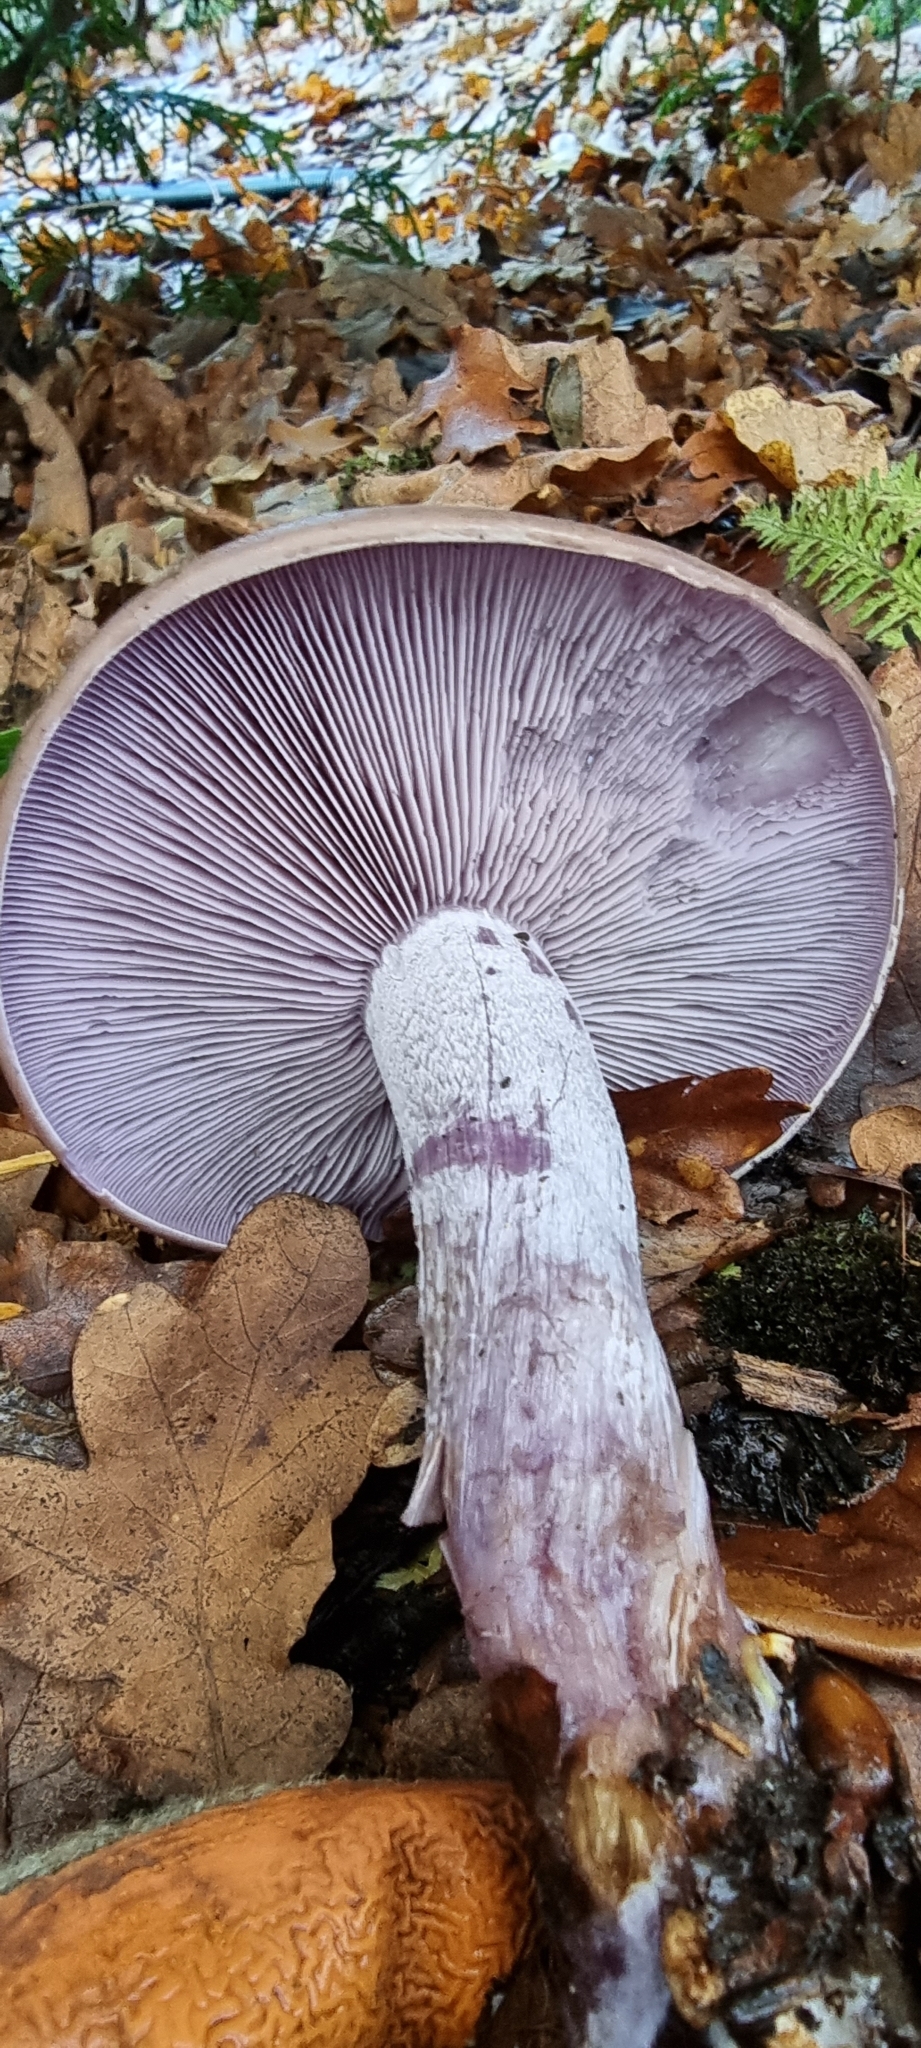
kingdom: Fungi
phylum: Basidiomycota
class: Agaricomycetes
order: Agaricales
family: Tricholomataceae
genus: Collybia
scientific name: Collybia
